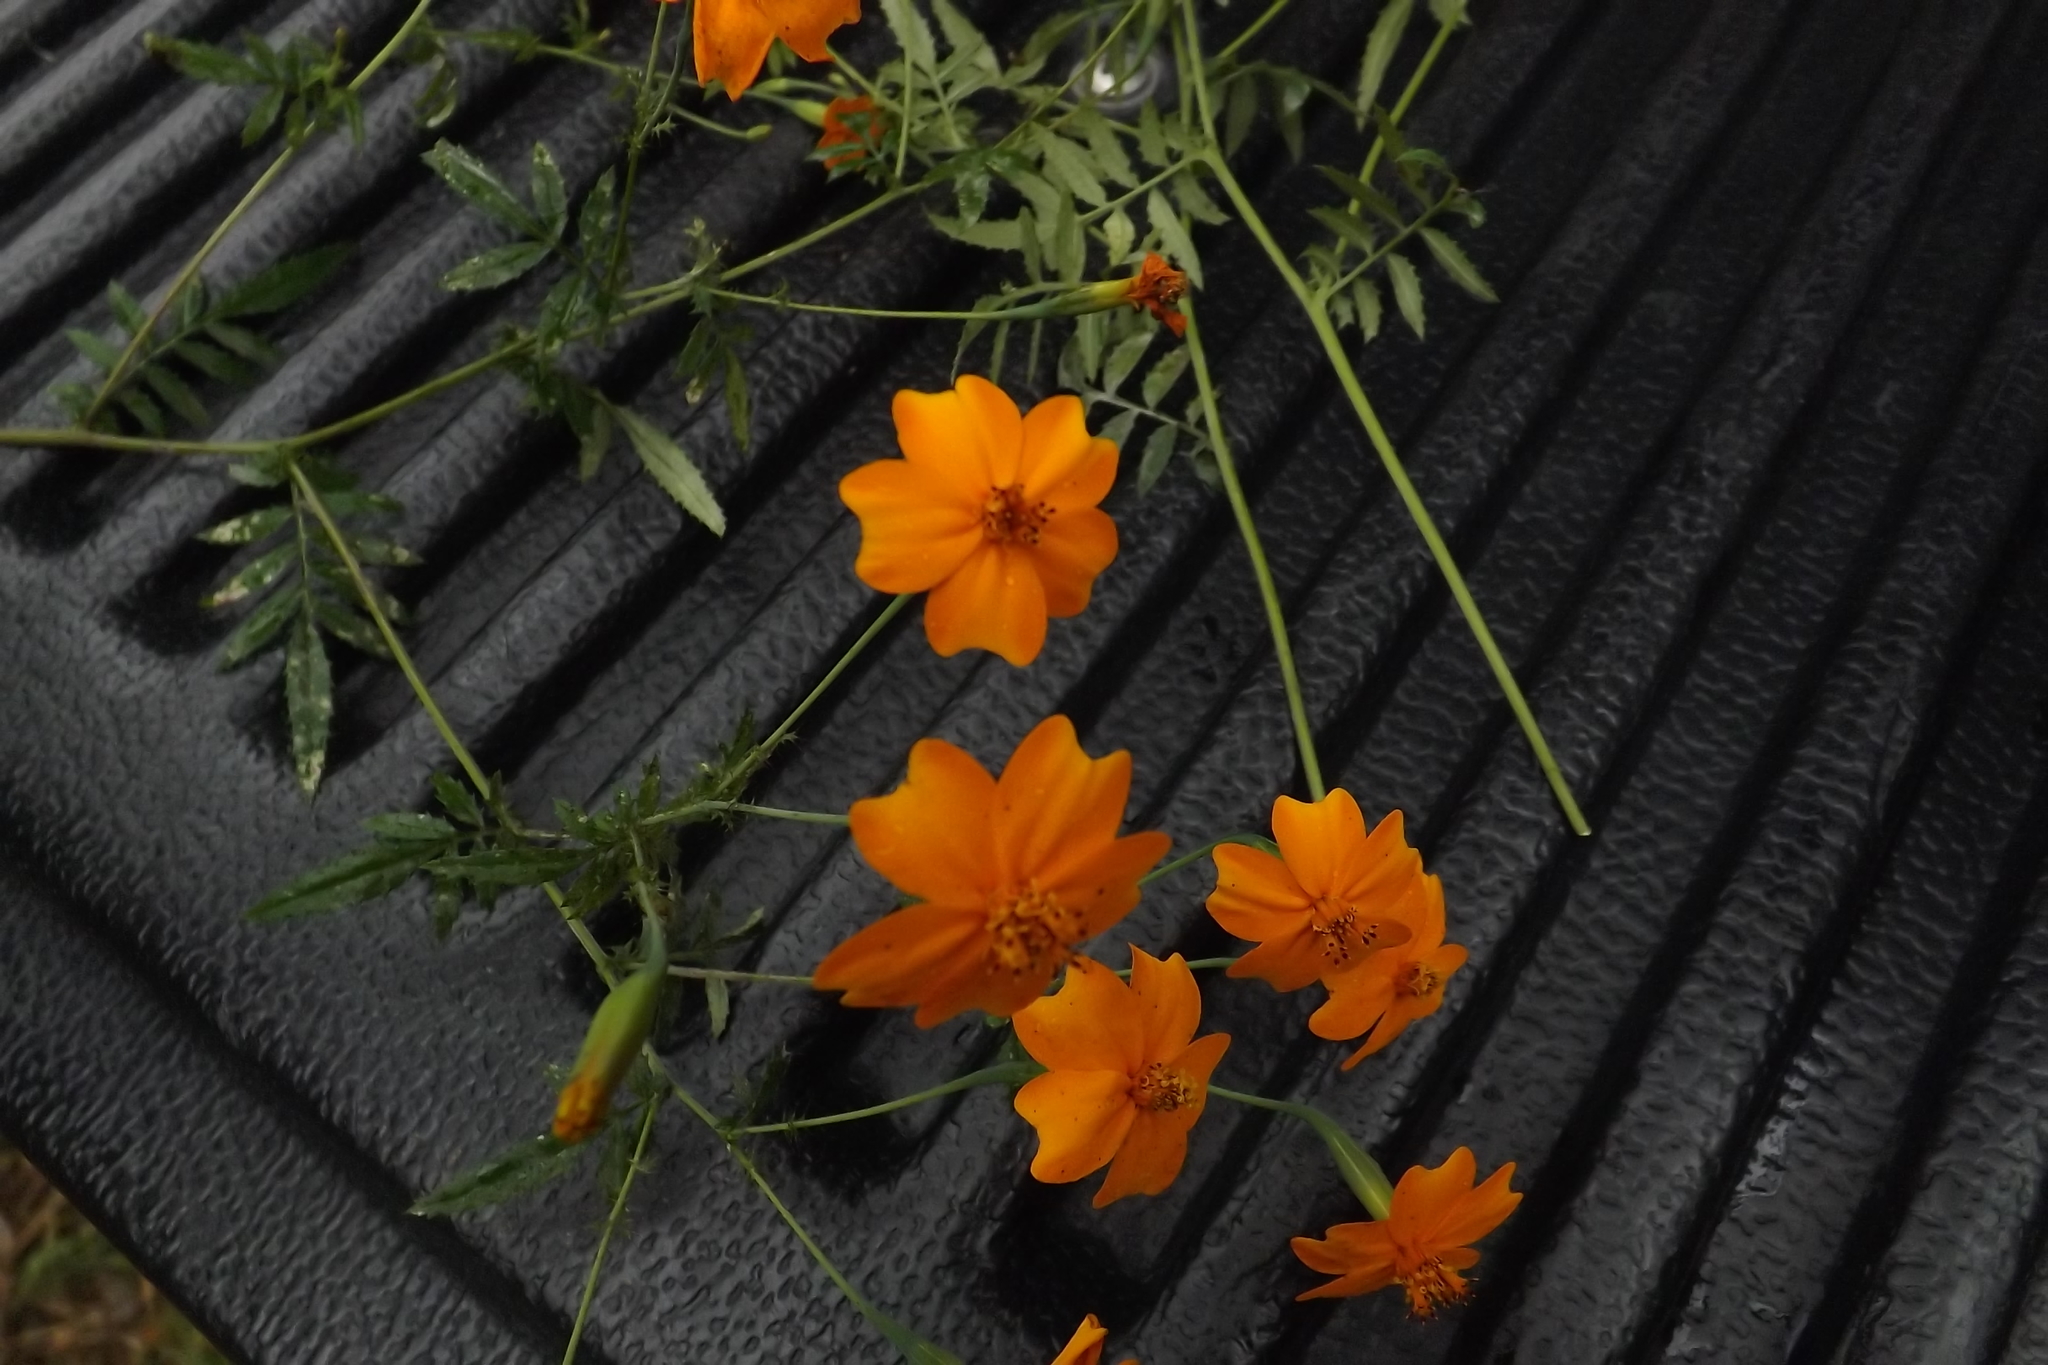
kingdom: Plantae
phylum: Tracheophyta
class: Magnoliopsida
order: Asterales
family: Asteraceae
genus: Tagetes
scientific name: Tagetes lunulata
